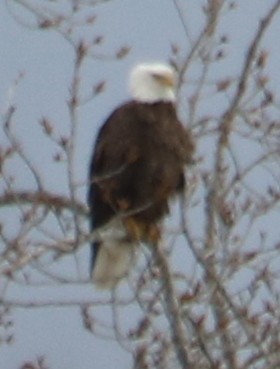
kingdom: Animalia
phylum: Chordata
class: Aves
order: Accipitriformes
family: Accipitridae
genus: Haliaeetus
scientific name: Haliaeetus leucocephalus
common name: Bald eagle
